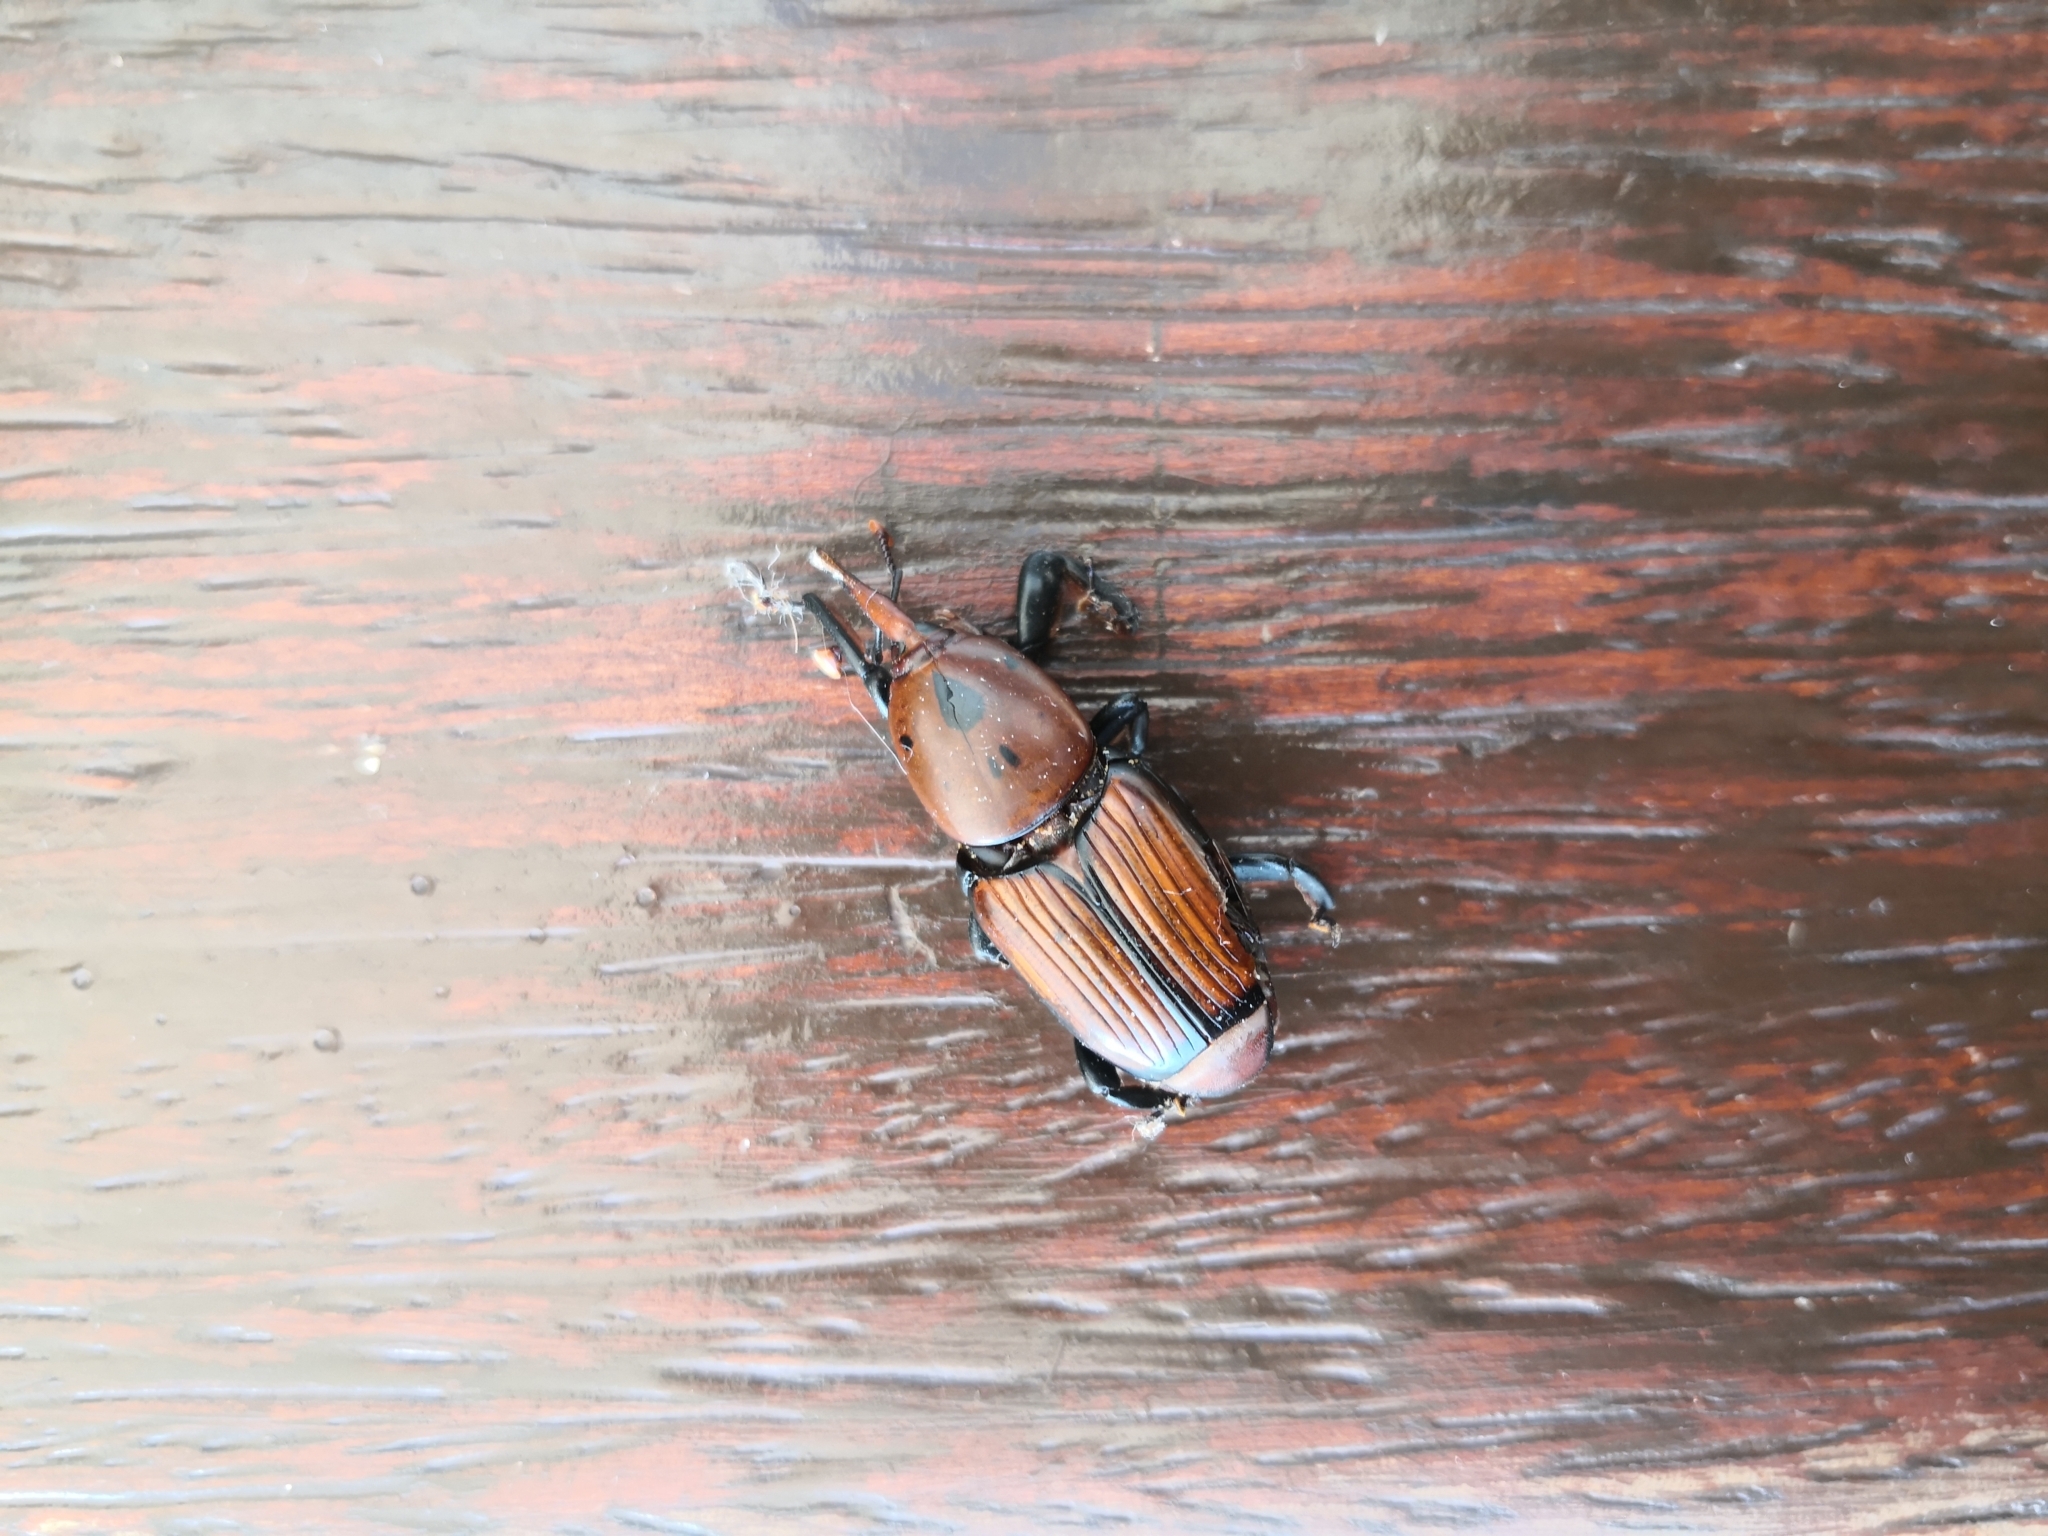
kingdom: Animalia
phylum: Arthropoda
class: Insecta
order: Coleoptera
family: Dryophthoridae
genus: Rhynchophorus
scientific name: Rhynchophorus ferrugineus
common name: Red palm weevil
